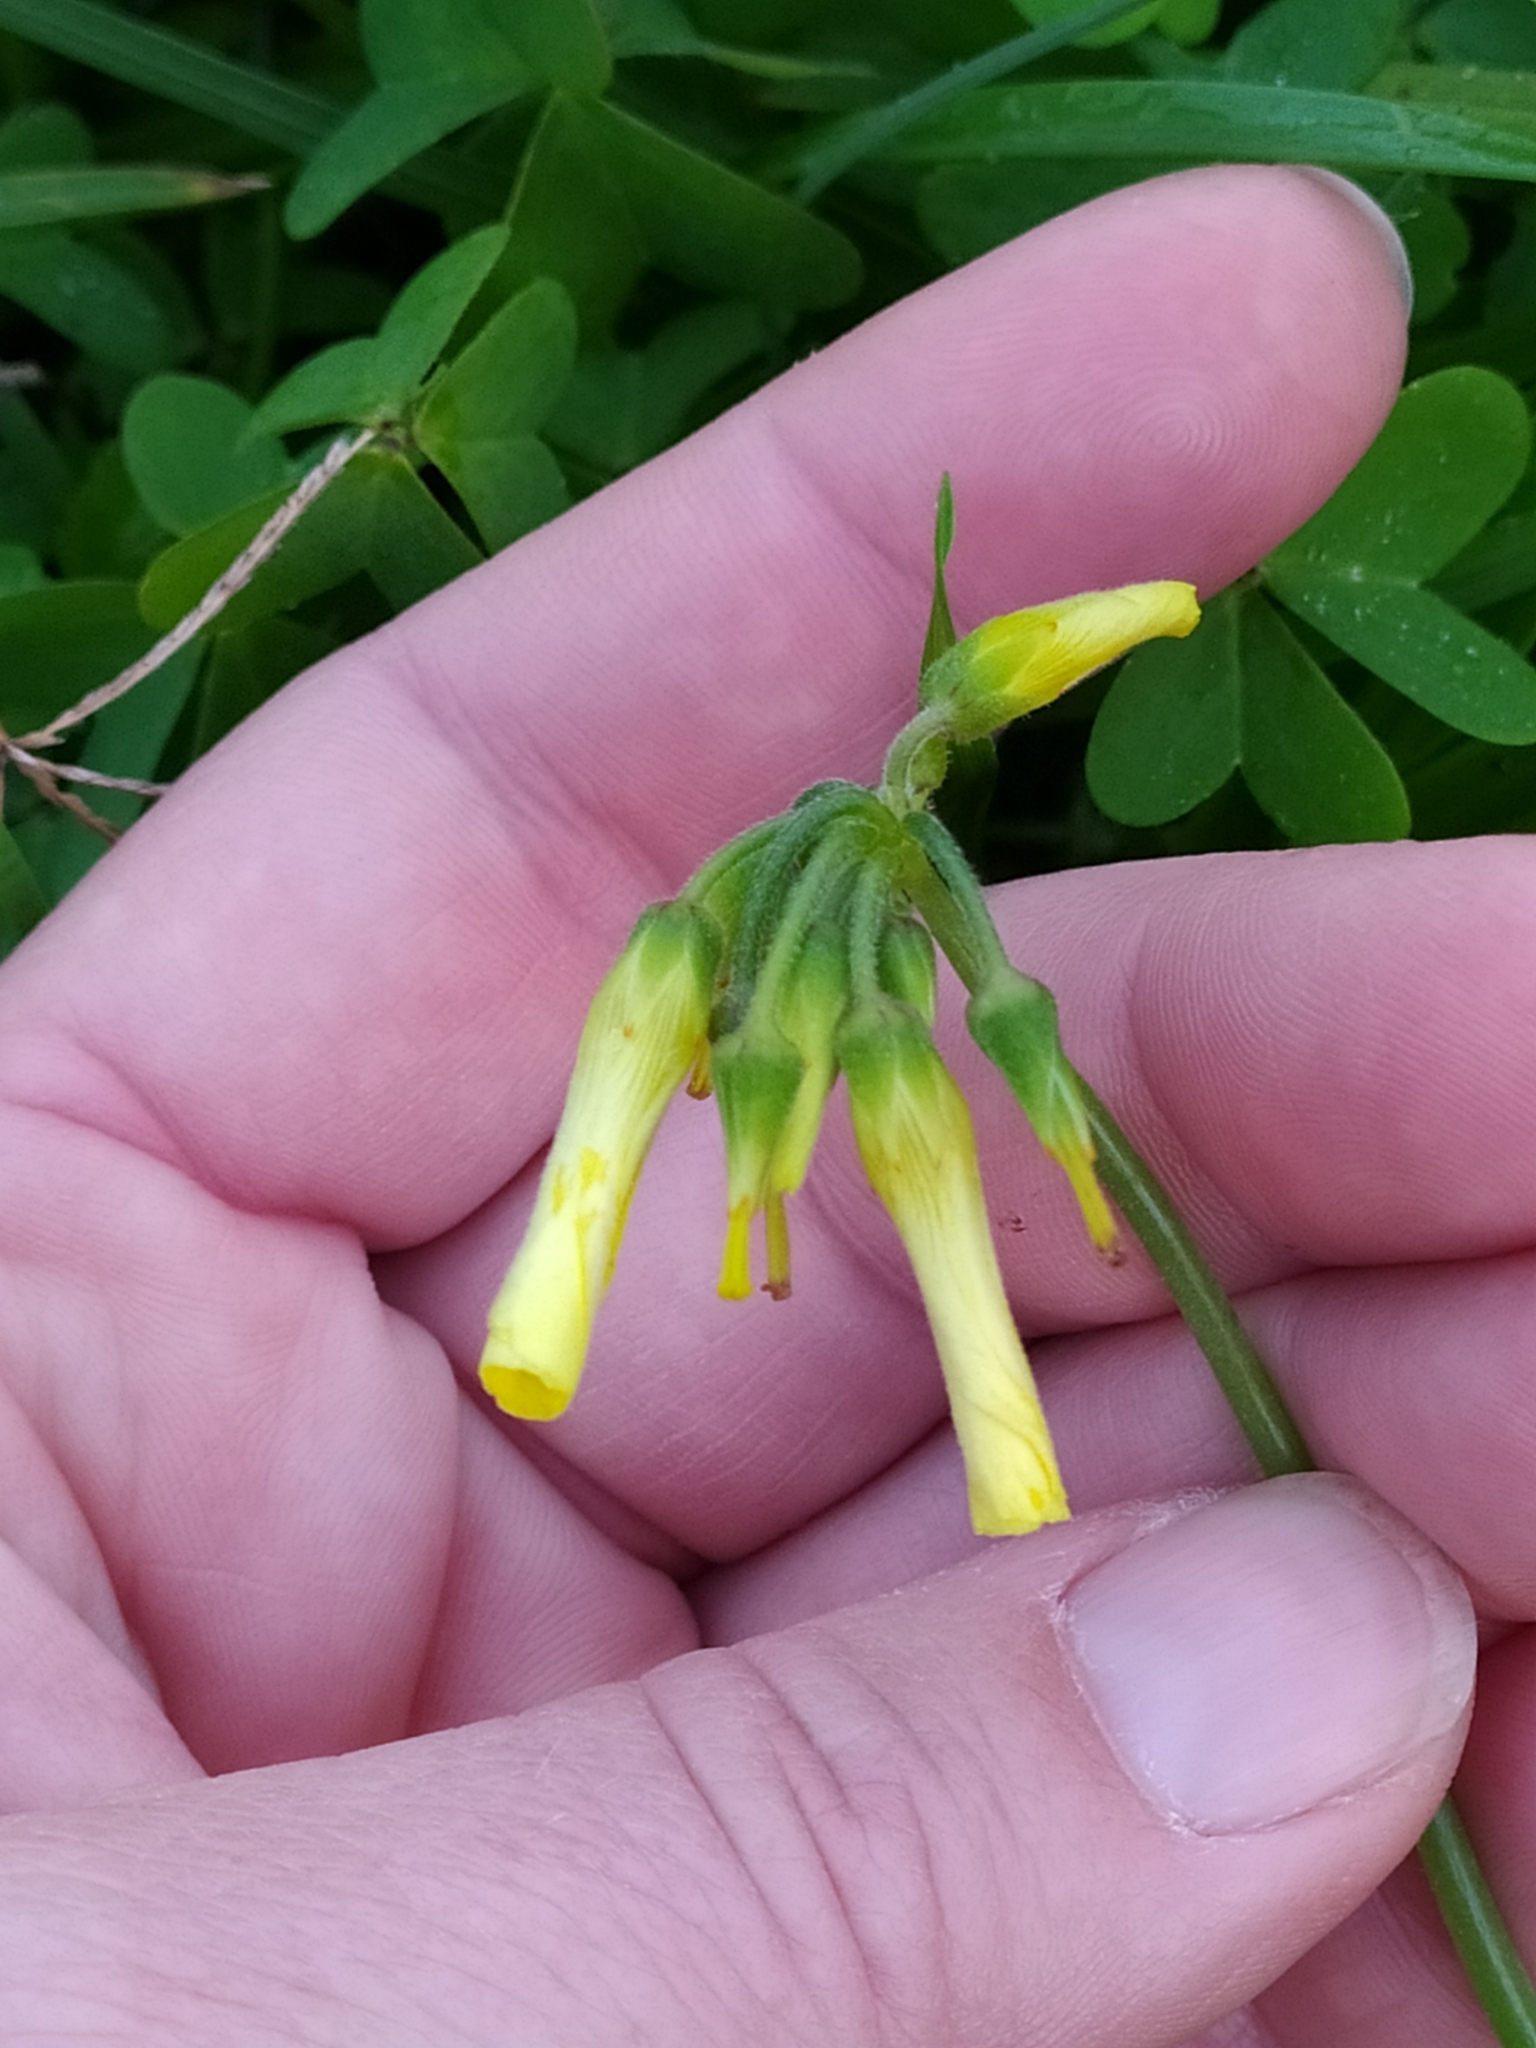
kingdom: Plantae
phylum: Tracheophyta
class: Magnoliopsida
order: Oxalidales
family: Oxalidaceae
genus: Oxalis
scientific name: Oxalis pes-caprae
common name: Bermuda-buttercup
